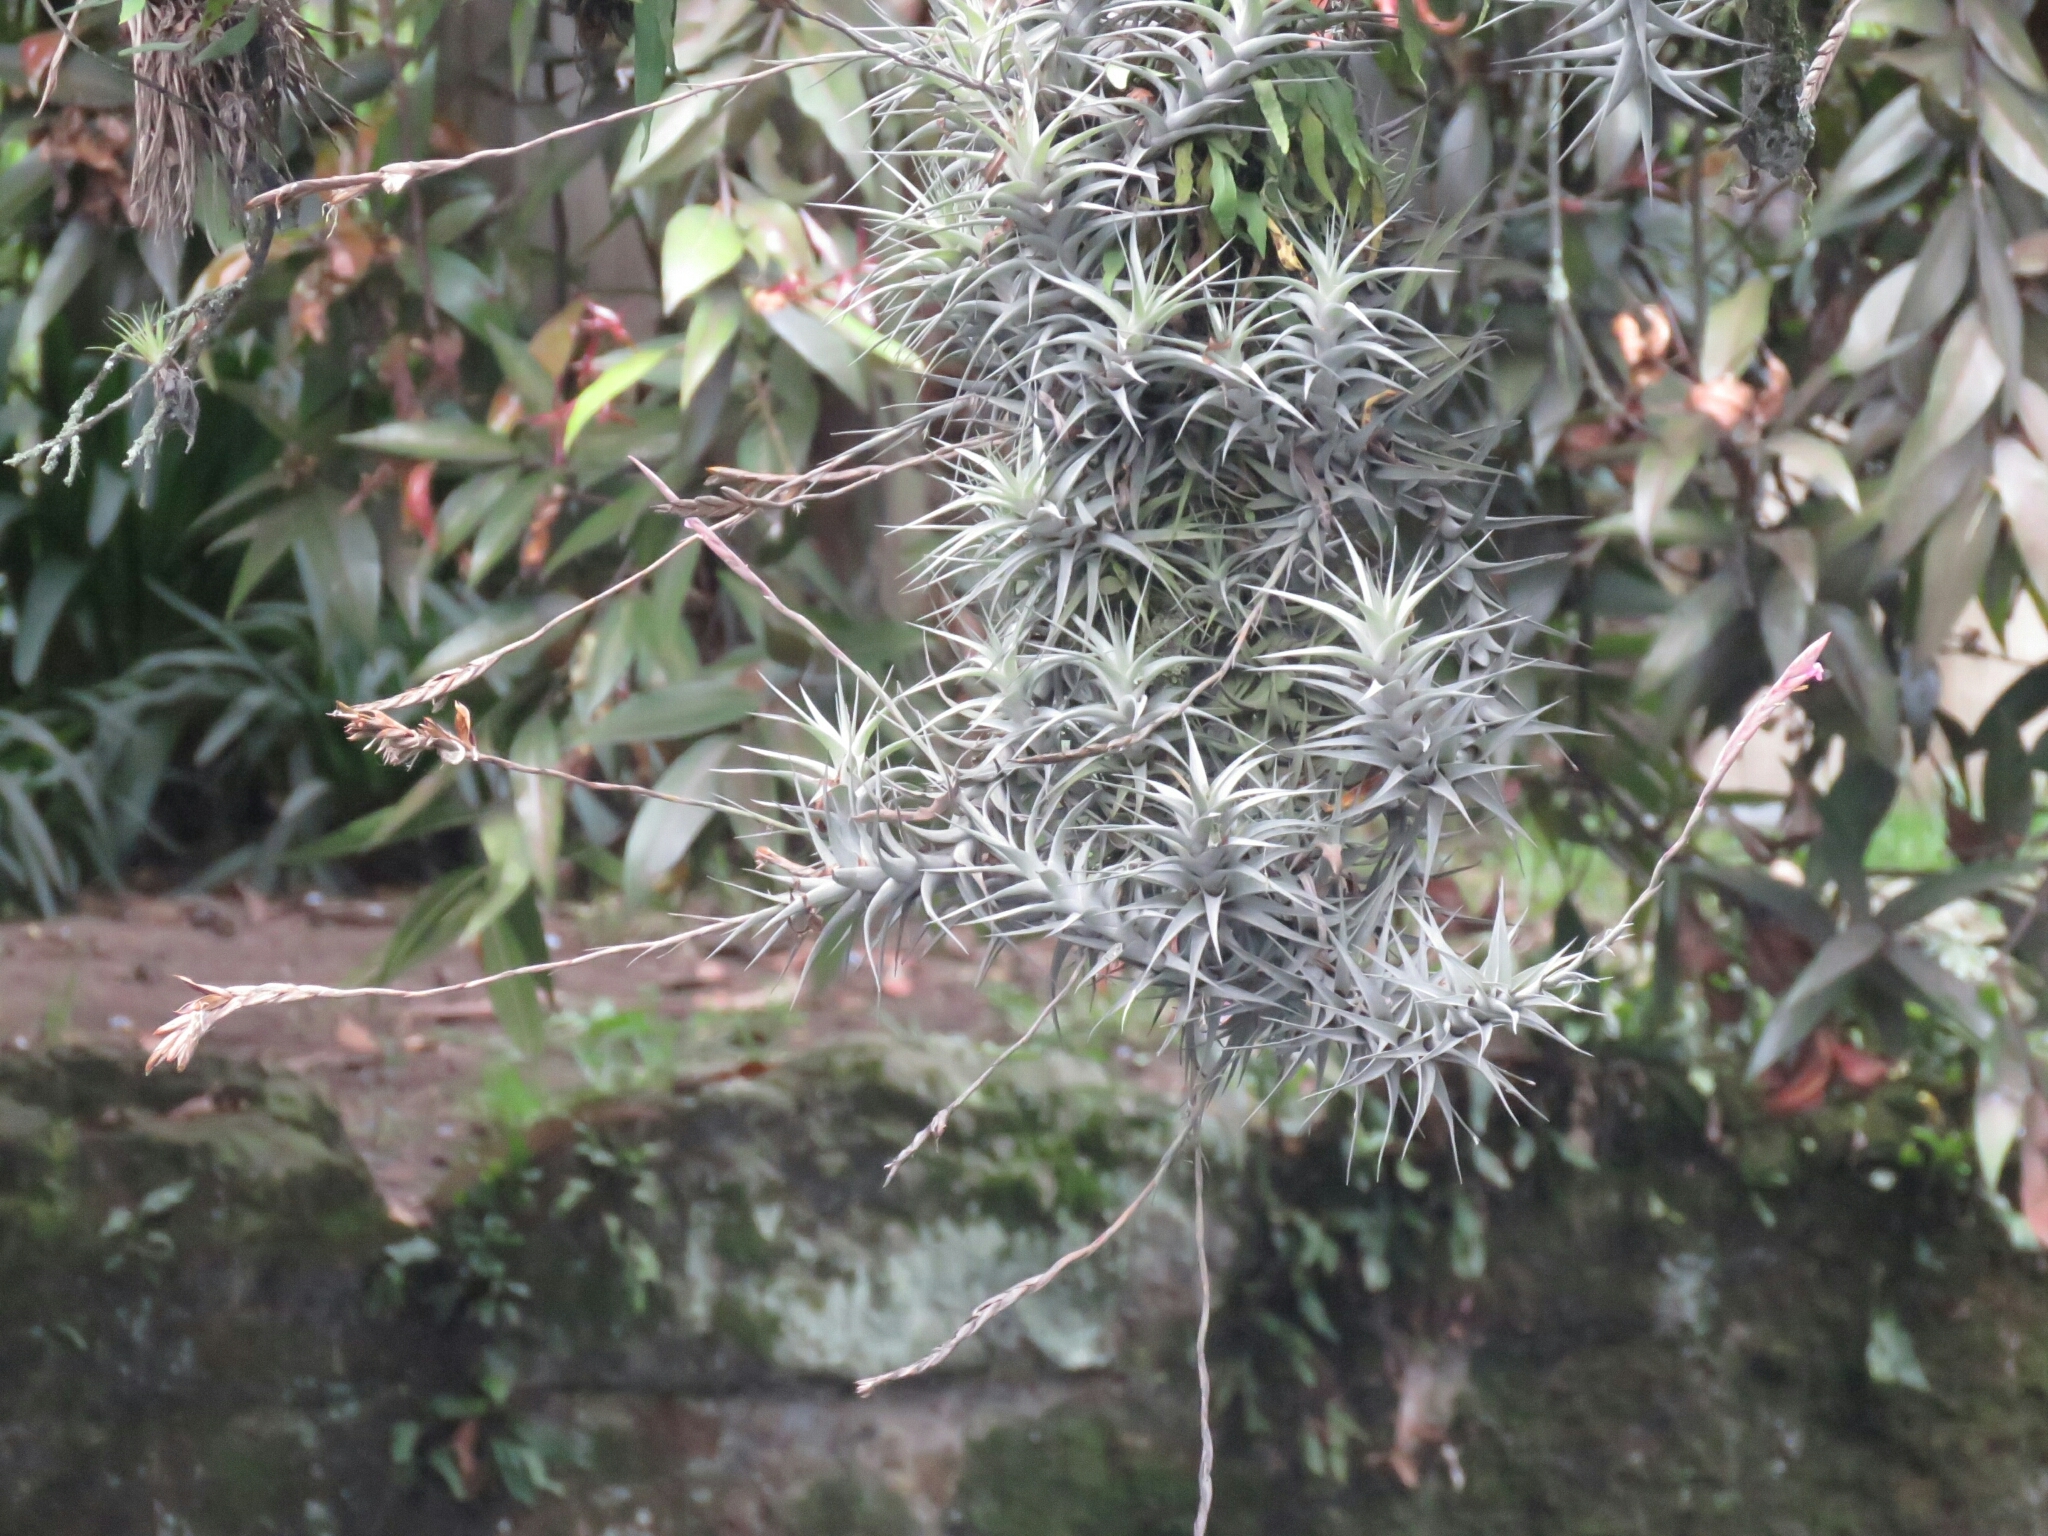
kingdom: Plantae
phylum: Tracheophyta
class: Liliopsida
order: Poales
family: Bromeliaceae
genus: Tillandsia
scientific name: Tillandsia incarnata
